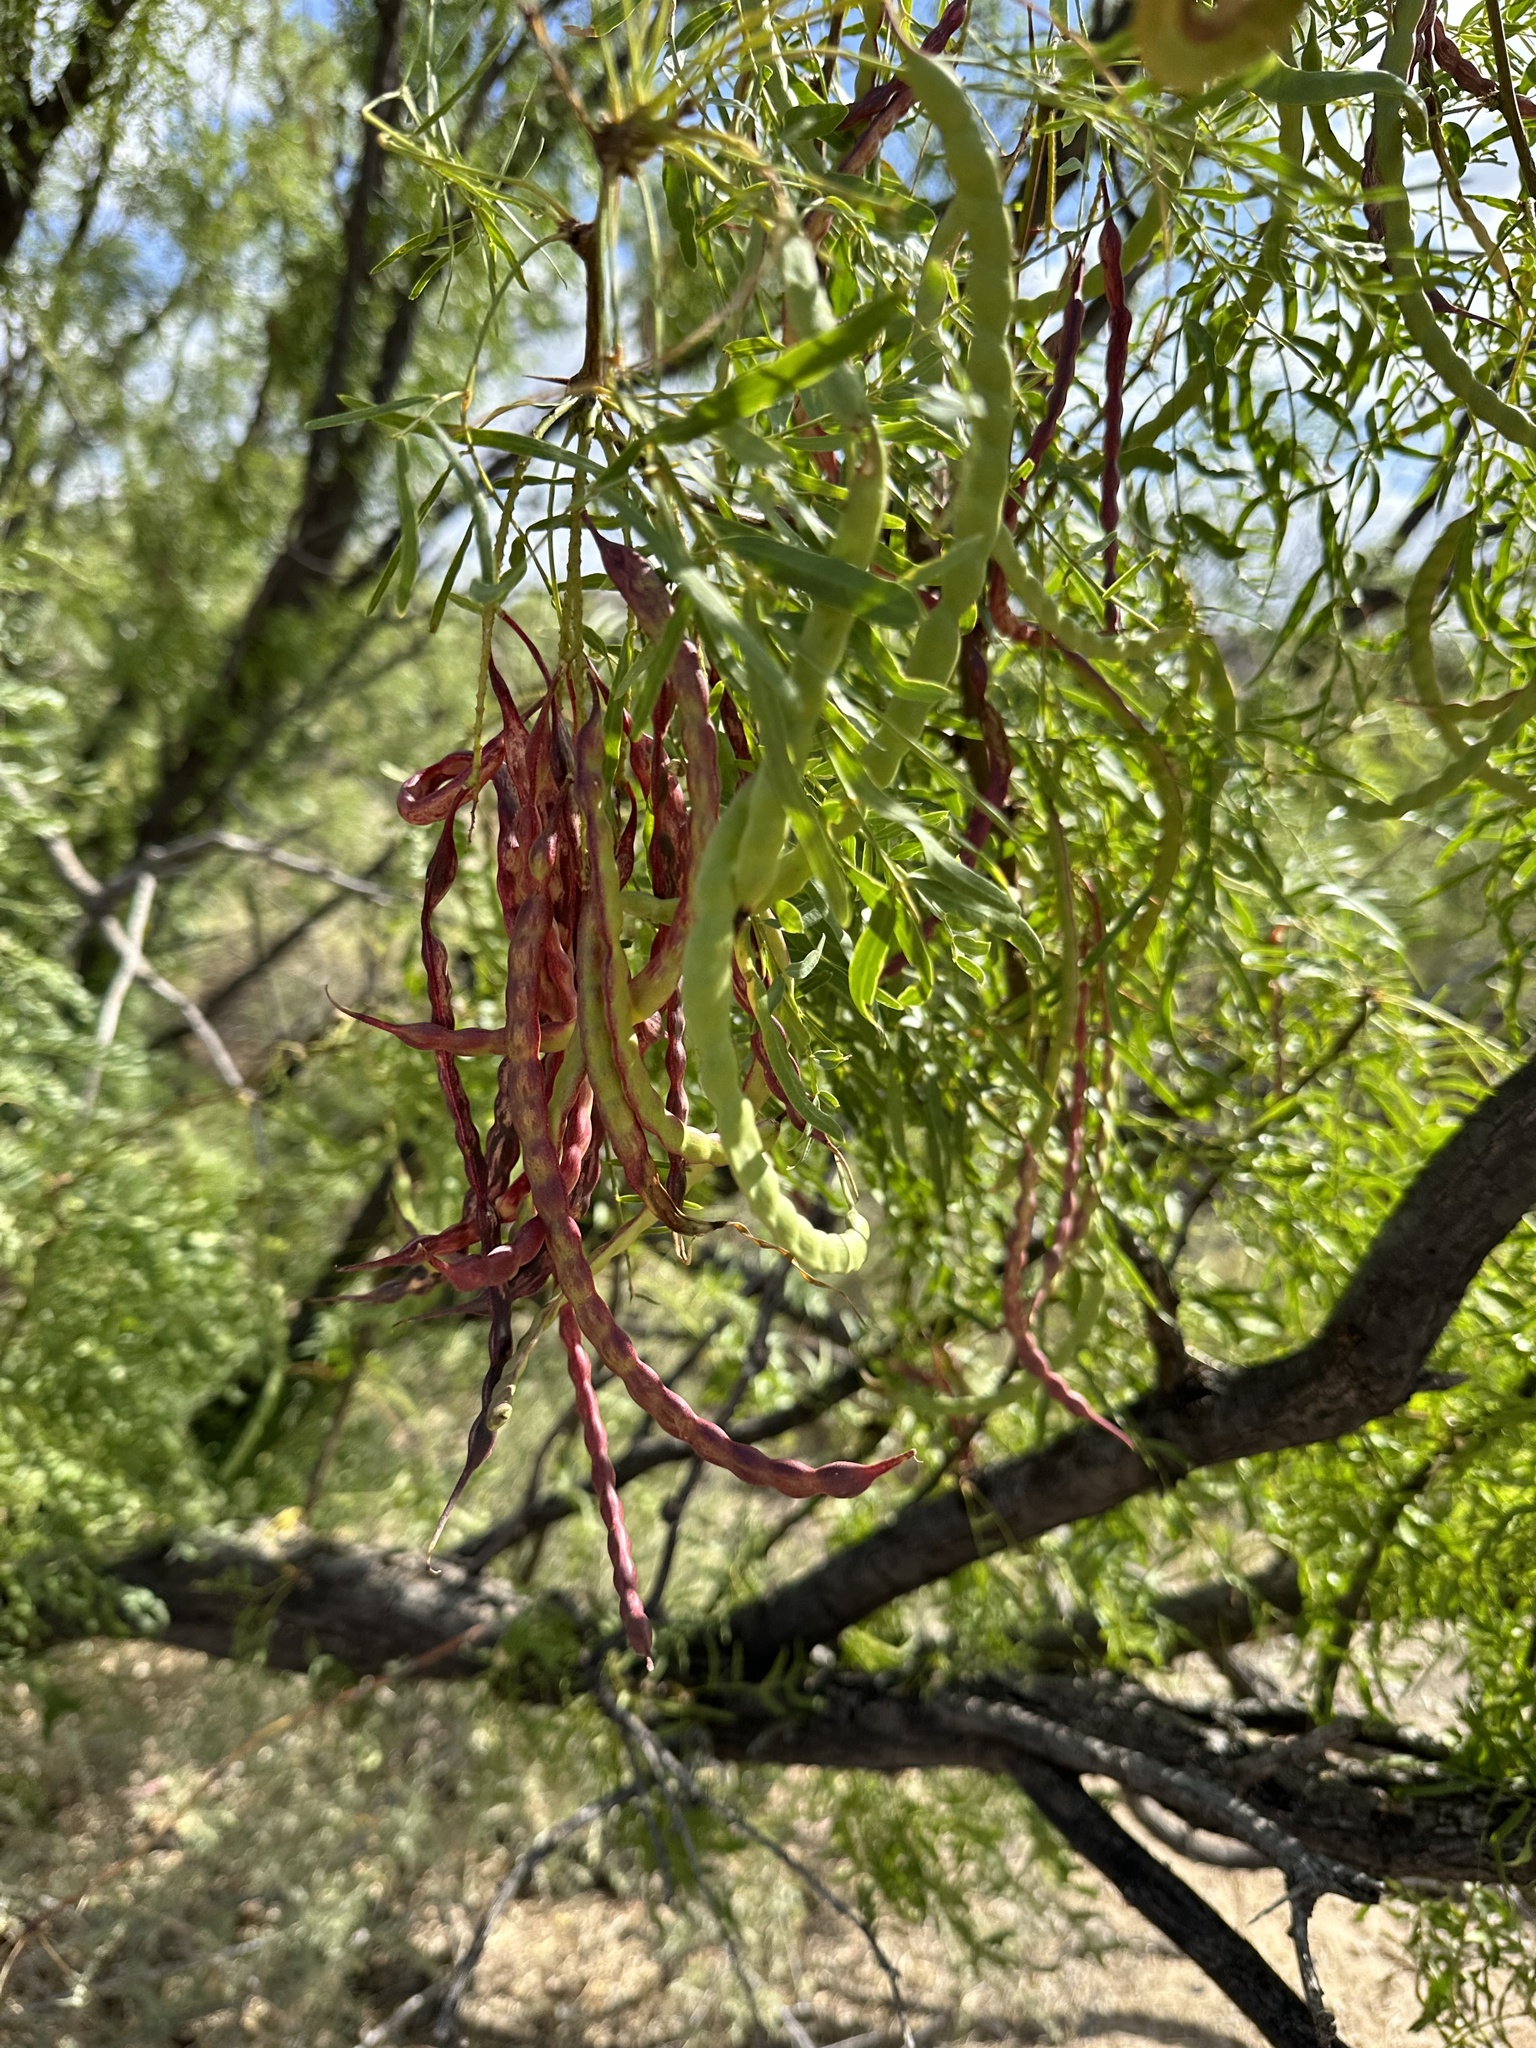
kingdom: Plantae
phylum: Tracheophyta
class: Magnoliopsida
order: Fabales
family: Fabaceae
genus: Prosopis
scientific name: Prosopis glandulosa
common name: Honey mesquite
